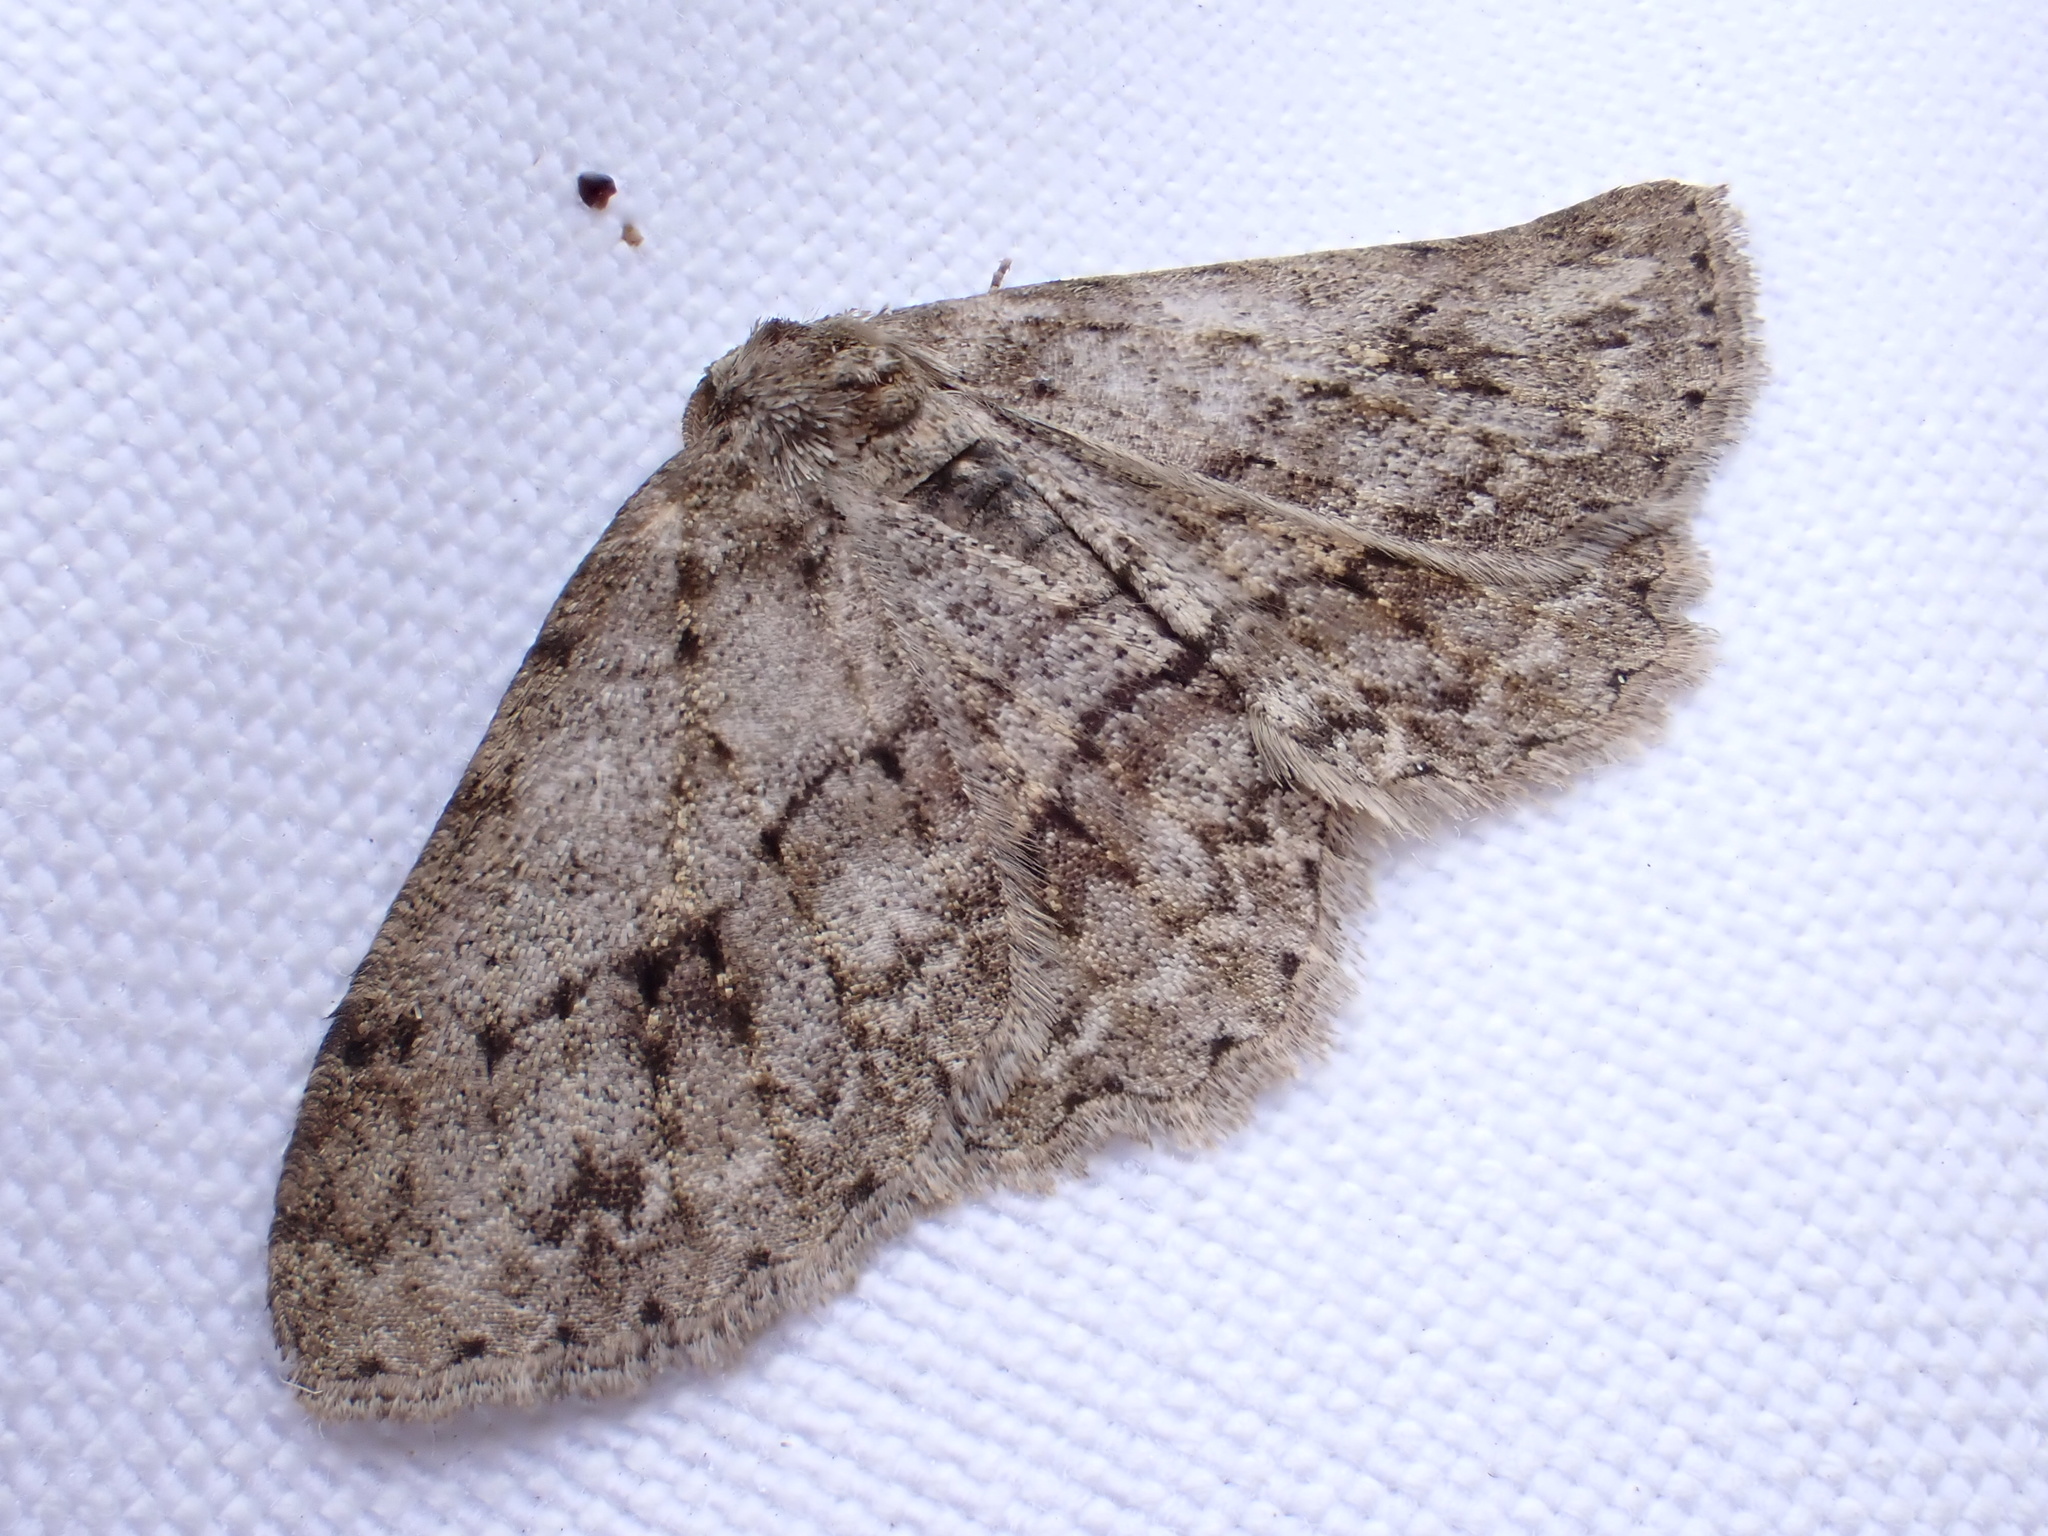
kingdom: Animalia
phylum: Arthropoda
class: Insecta
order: Lepidoptera
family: Geometridae
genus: Ectropis
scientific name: Ectropis crepuscularia
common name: Engrailed
